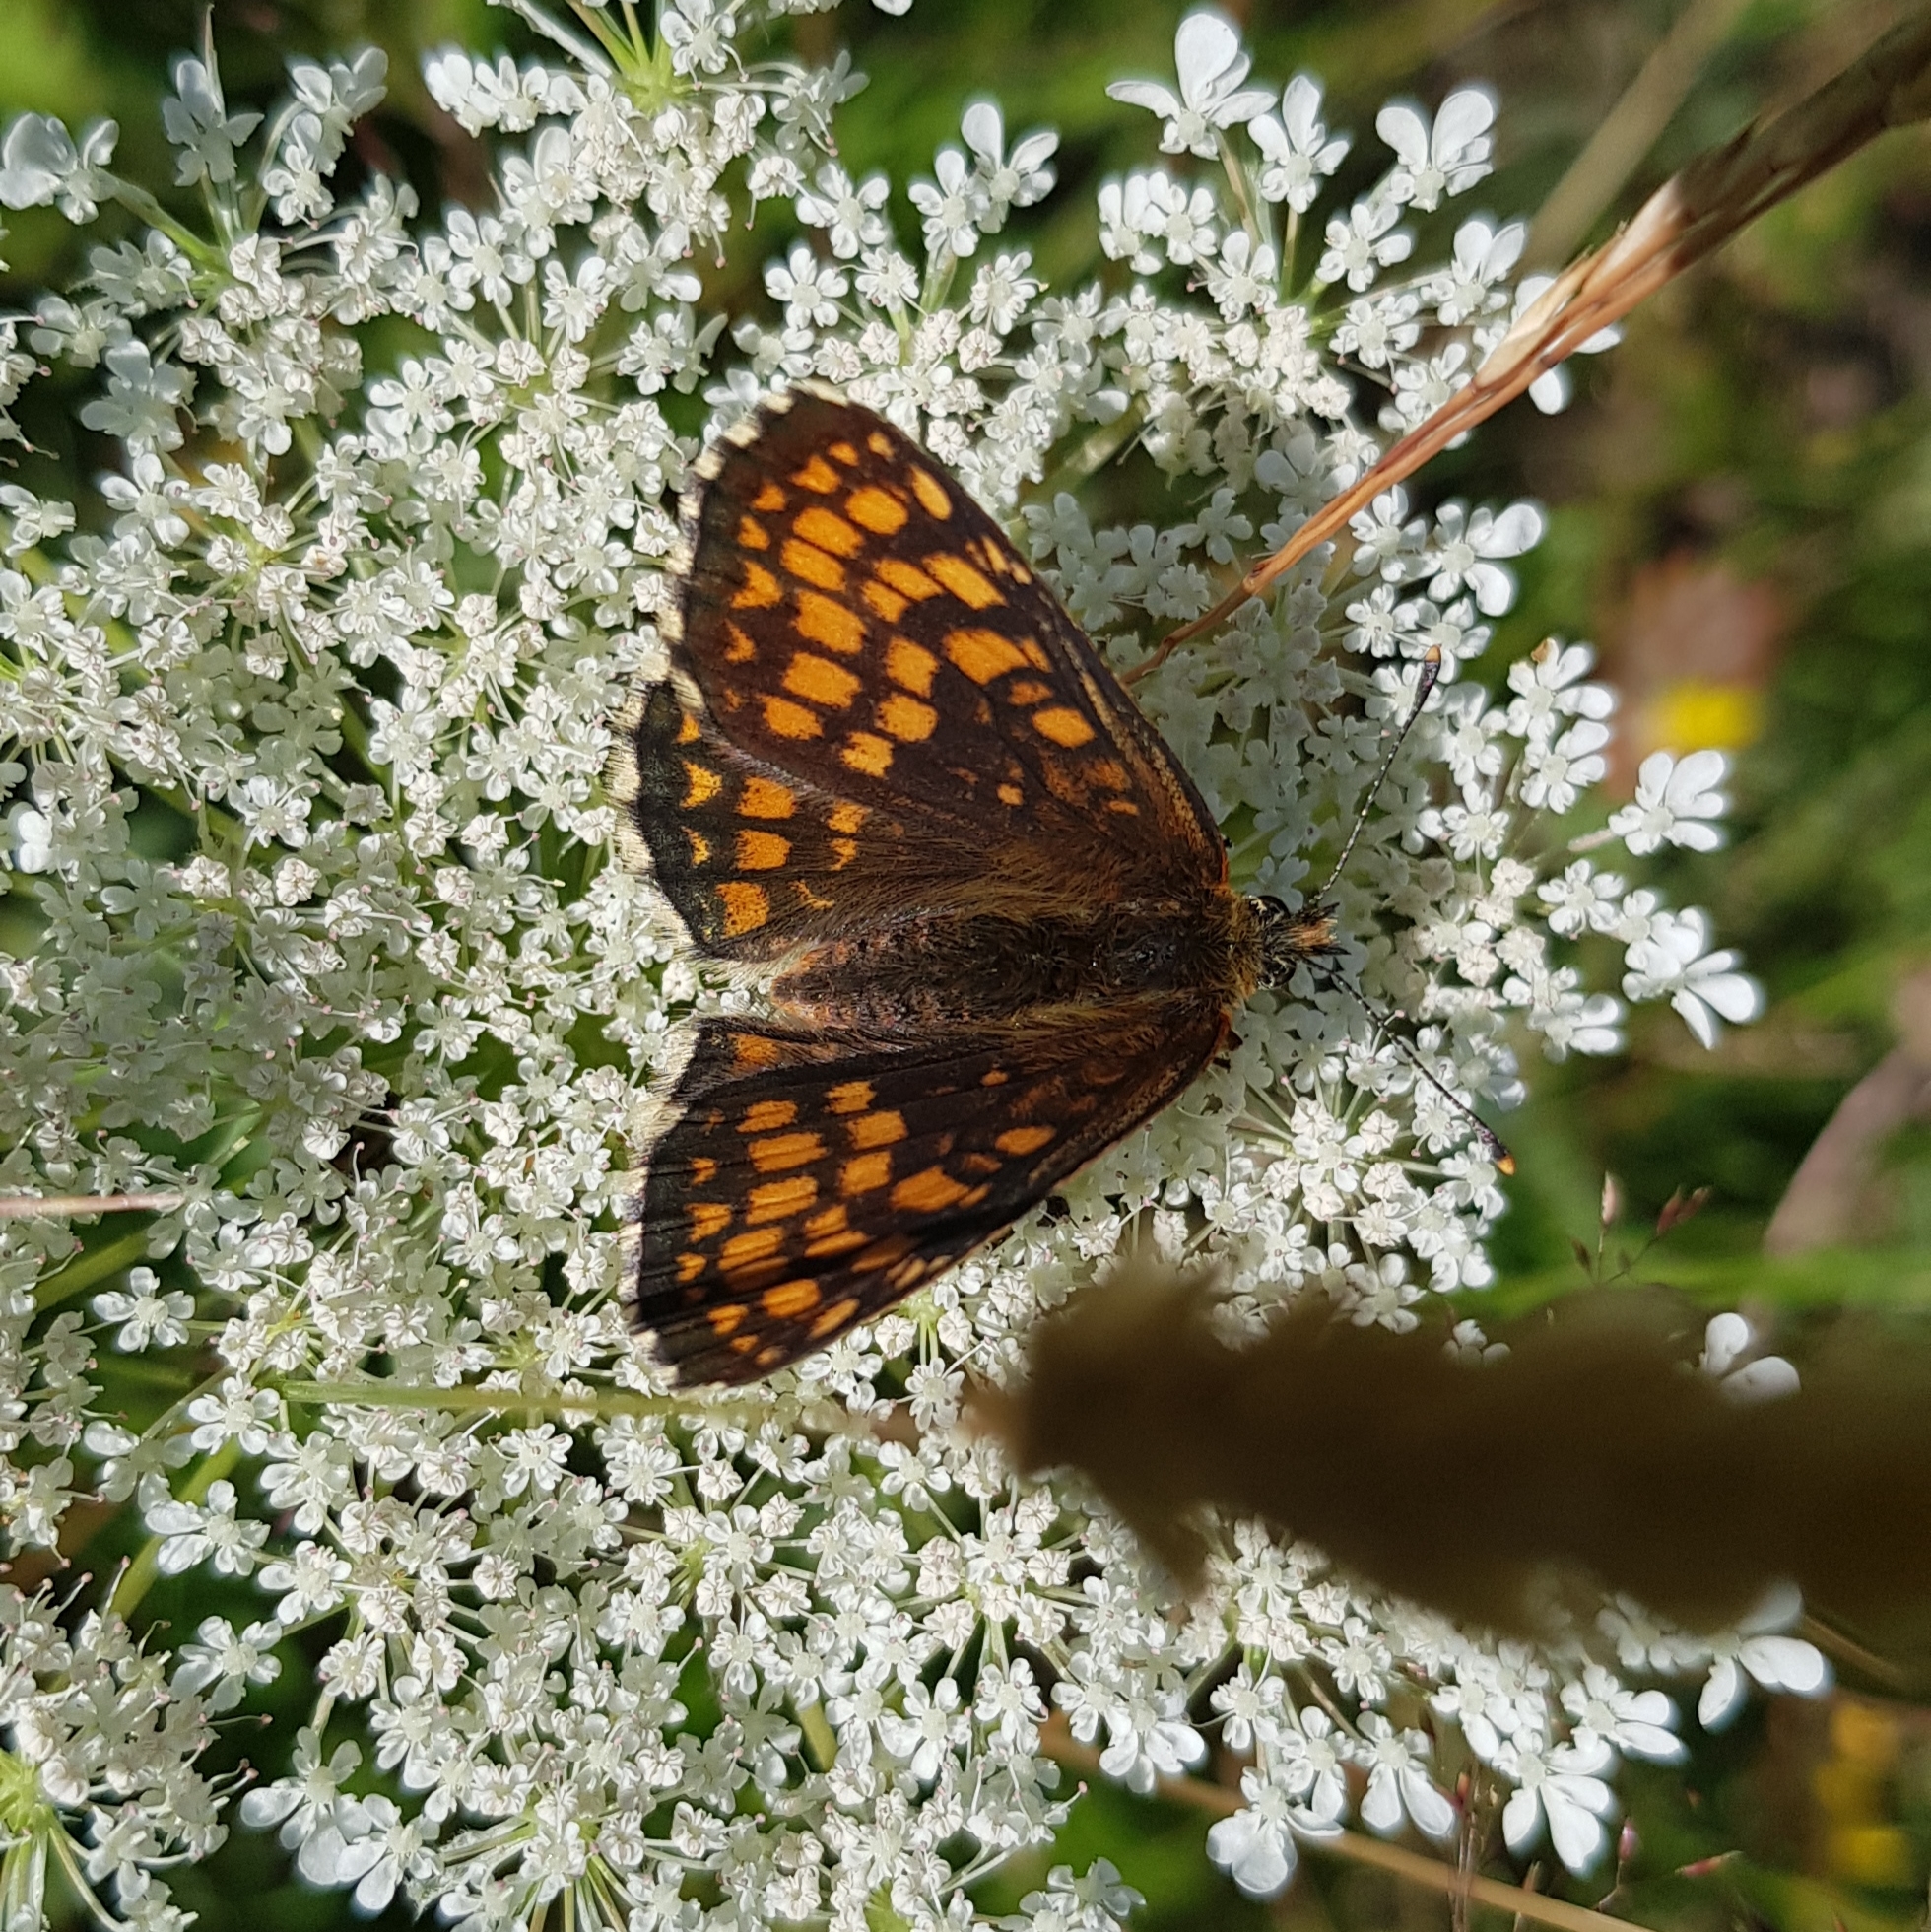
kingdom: Animalia
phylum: Arthropoda
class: Insecta
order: Lepidoptera
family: Nymphalidae
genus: Melitaea
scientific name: Melitaea athalia
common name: Heath fritillary
